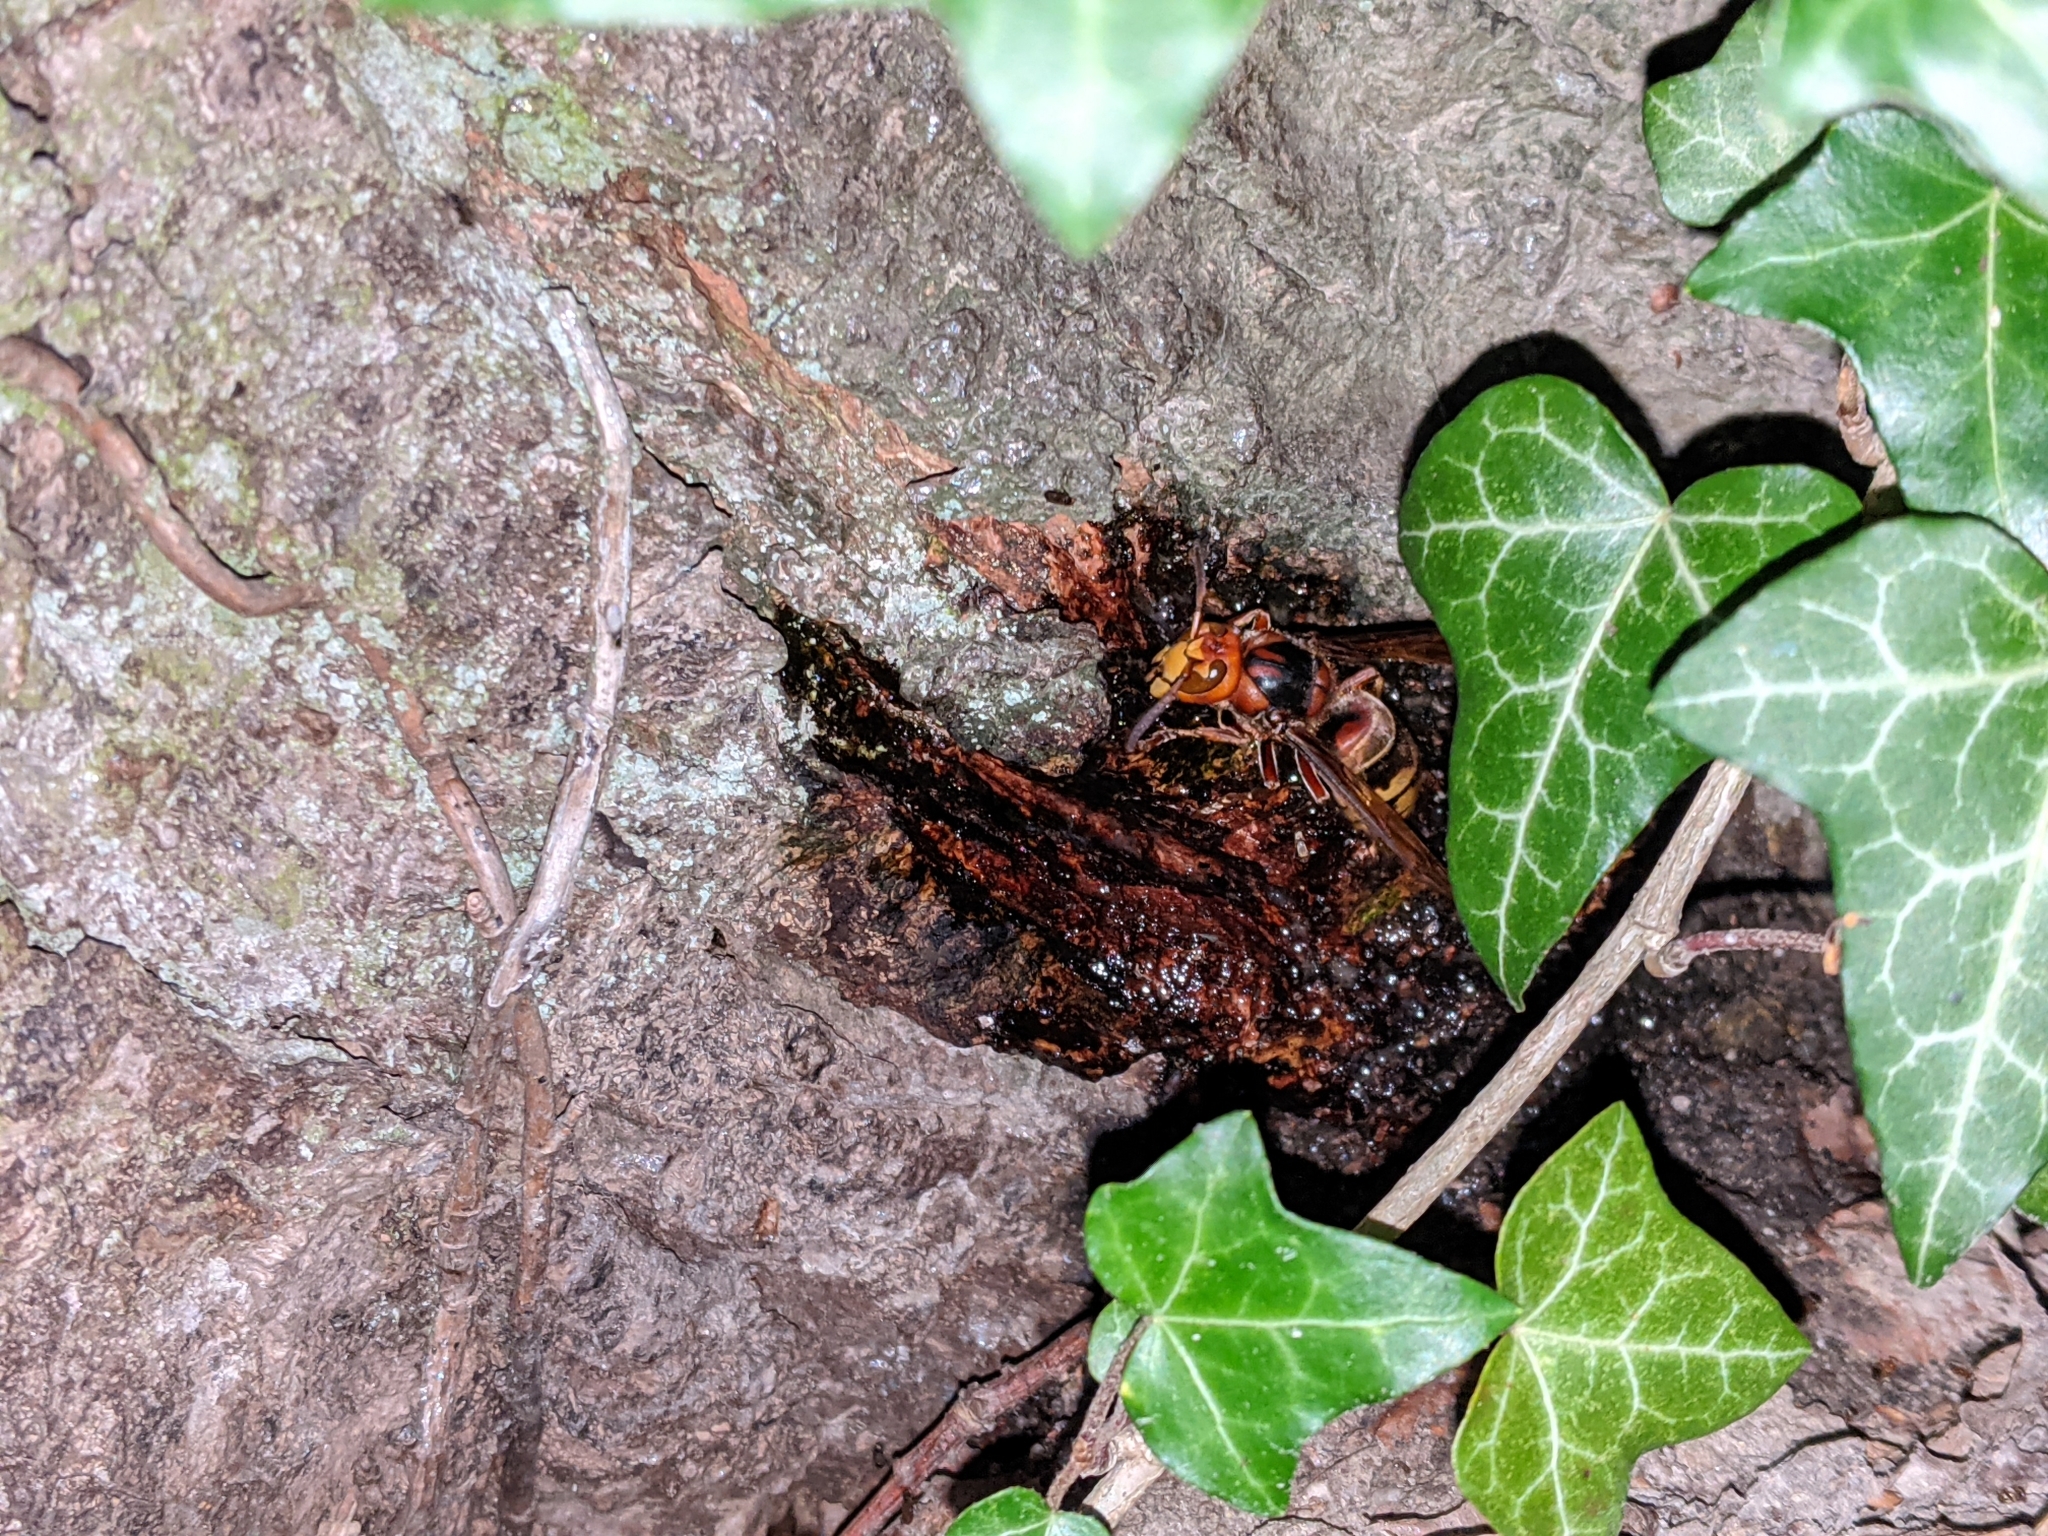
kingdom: Animalia
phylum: Arthropoda
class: Insecta
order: Hymenoptera
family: Vespidae
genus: Vespa
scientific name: Vespa crabro
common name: Hornet
